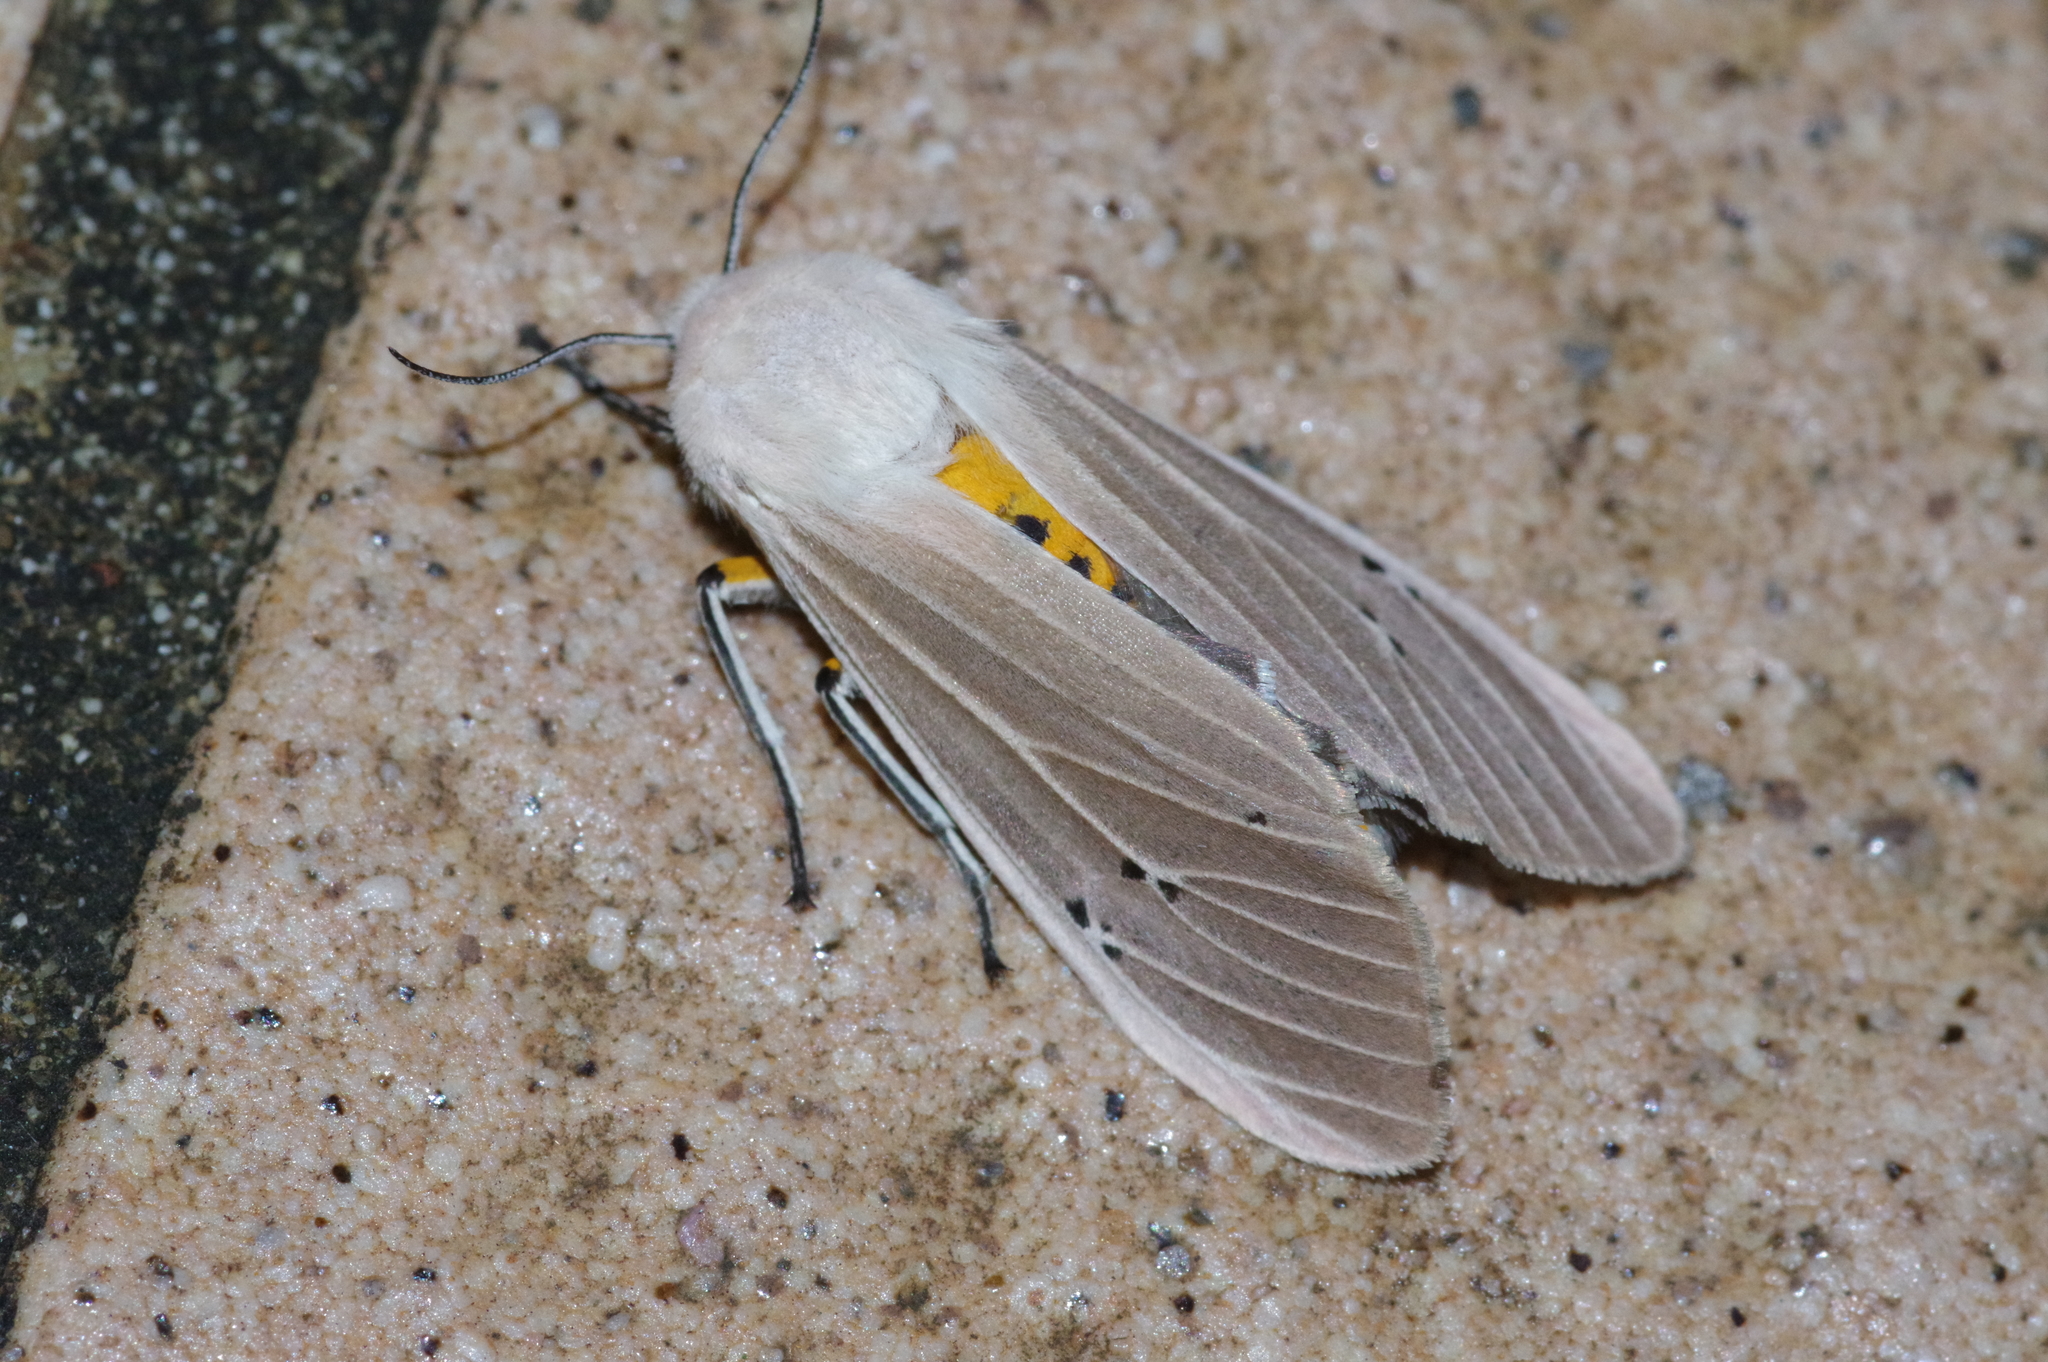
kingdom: Animalia
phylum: Arthropoda
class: Insecta
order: Lepidoptera
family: Erebidae
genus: Creatonotos
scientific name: Creatonotos transiens
